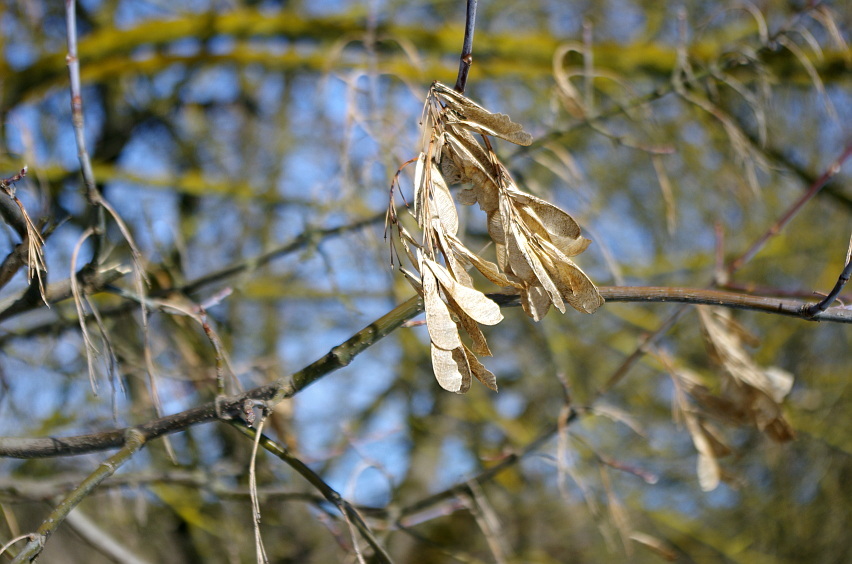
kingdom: Plantae
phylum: Tracheophyta
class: Magnoliopsida
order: Sapindales
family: Sapindaceae
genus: Acer
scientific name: Acer negundo
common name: Ashleaf maple
